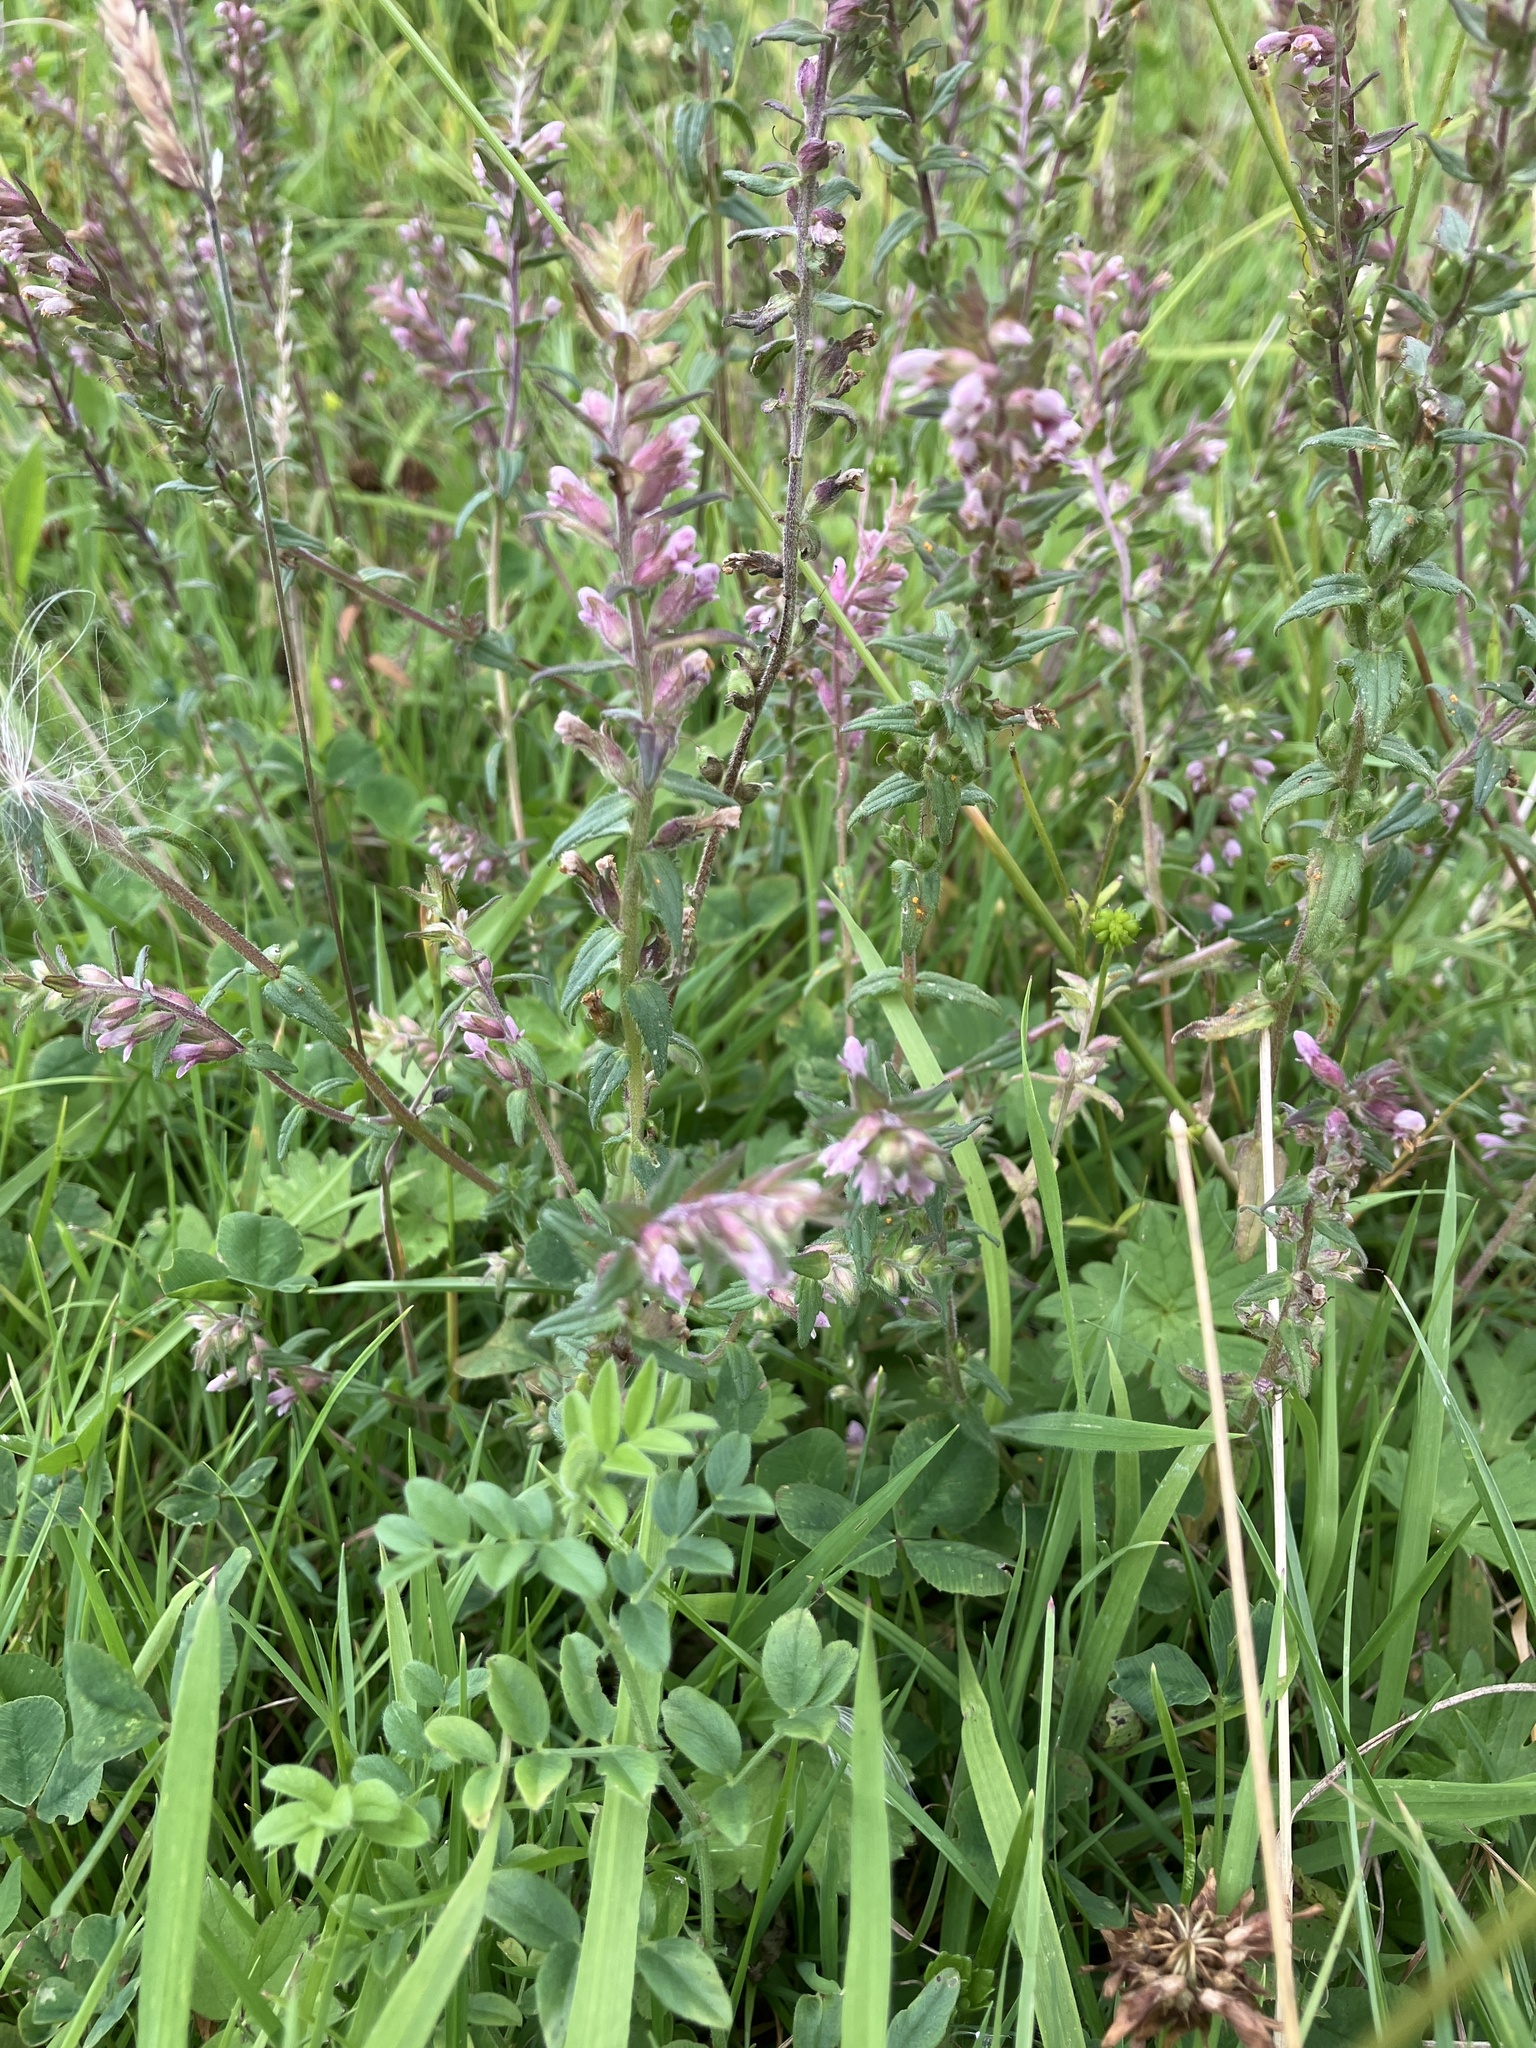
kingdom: Plantae
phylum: Tracheophyta
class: Magnoliopsida
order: Lamiales
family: Orobanchaceae
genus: Odontites
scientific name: Odontites vernus
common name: Red bartsia
